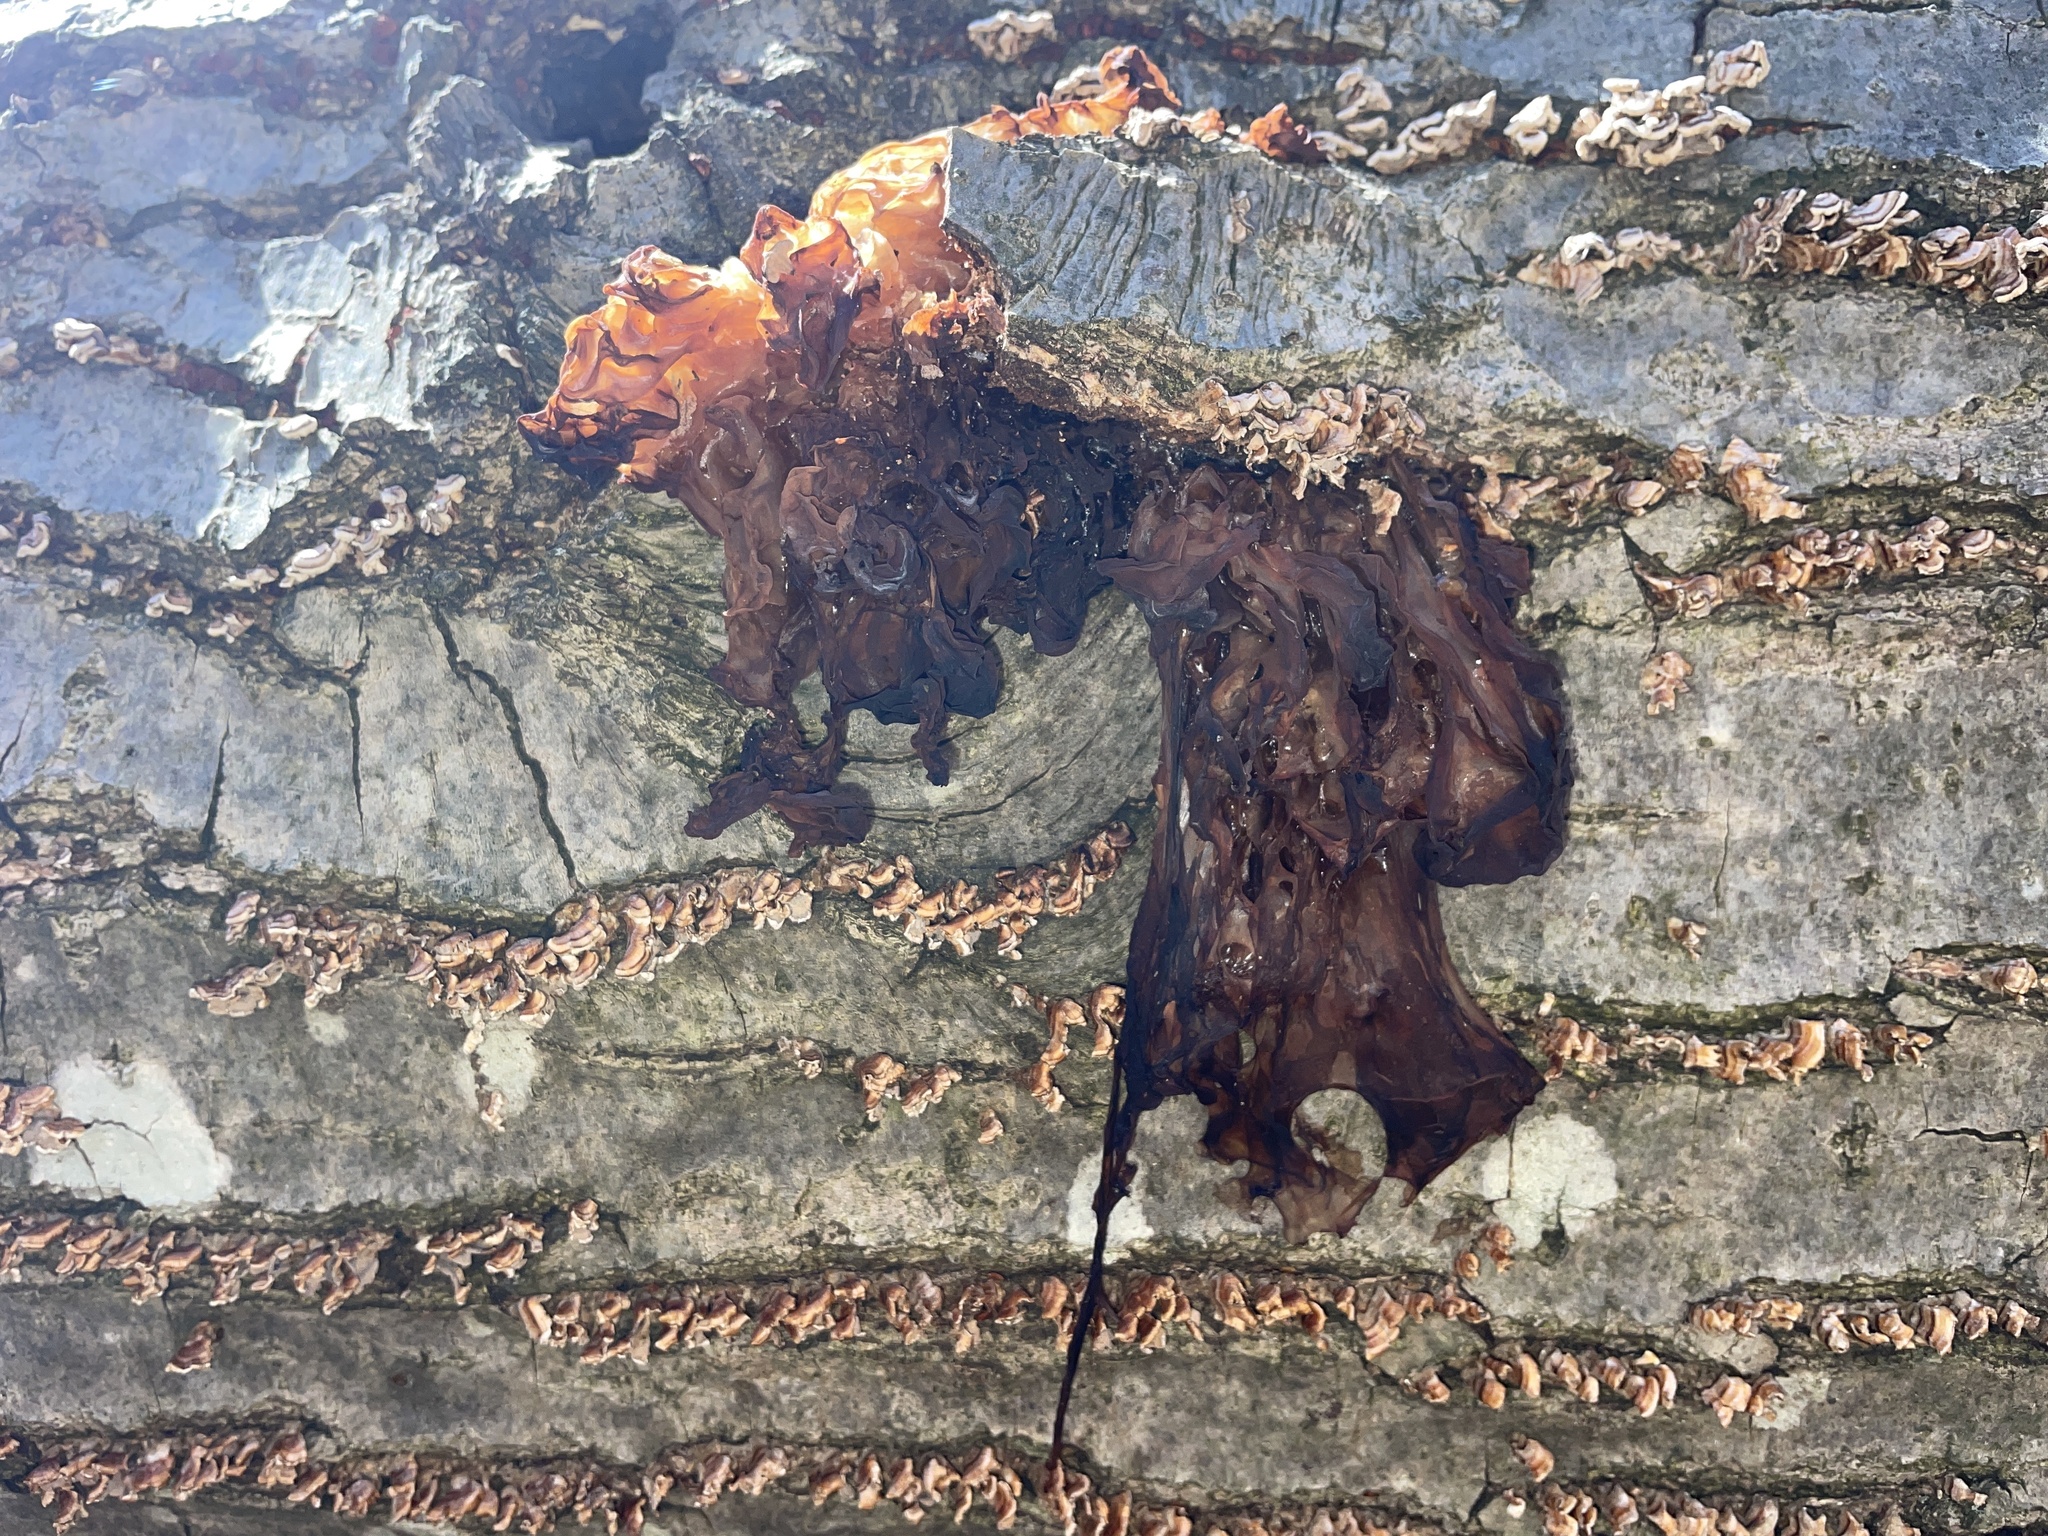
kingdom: Fungi
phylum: Basidiomycota
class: Tremellomycetes
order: Tremellales
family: Tremellaceae
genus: Phaeotremella
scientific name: Phaeotremella frondosa
